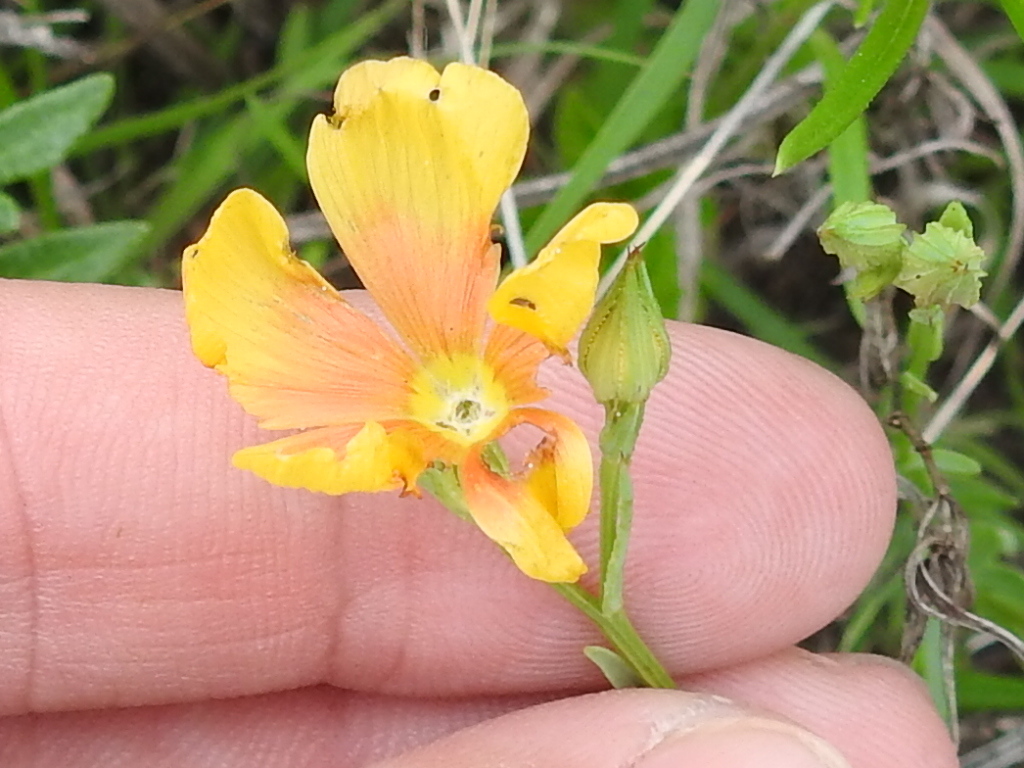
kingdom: Plantae
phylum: Tracheophyta
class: Magnoliopsida
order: Malpighiales
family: Linaceae
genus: Linum
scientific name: Linum berlandieri
